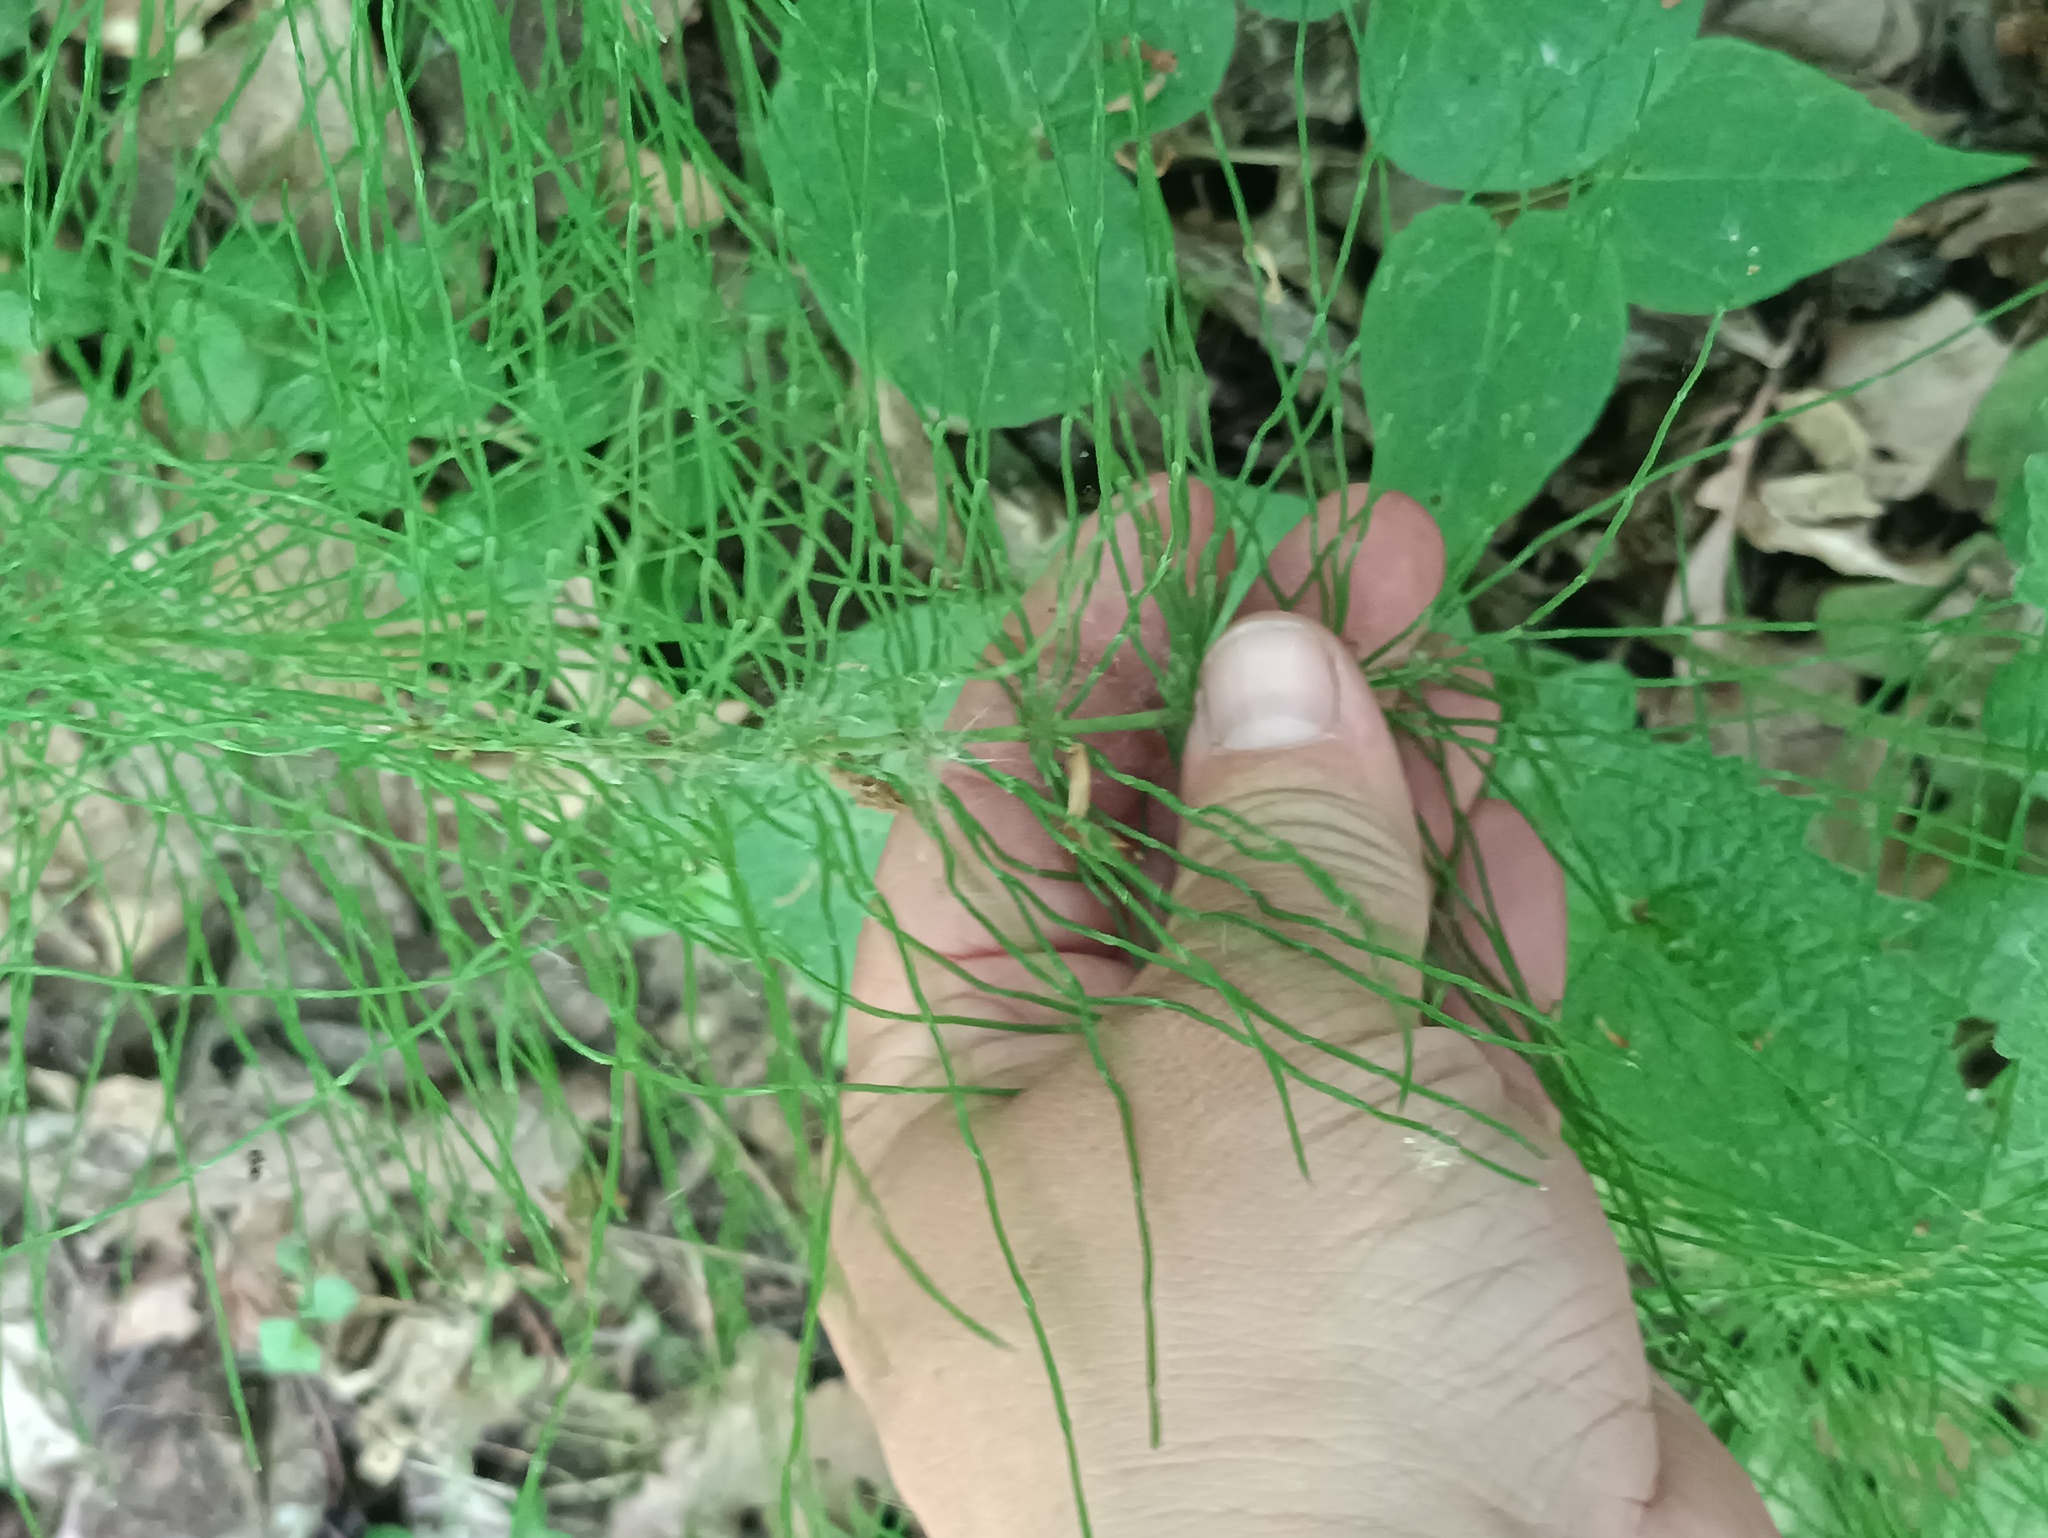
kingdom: Plantae
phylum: Tracheophyta
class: Polypodiopsida
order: Equisetales
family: Equisetaceae
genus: Equisetum
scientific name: Equisetum pratense
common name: Meadow horsetail
